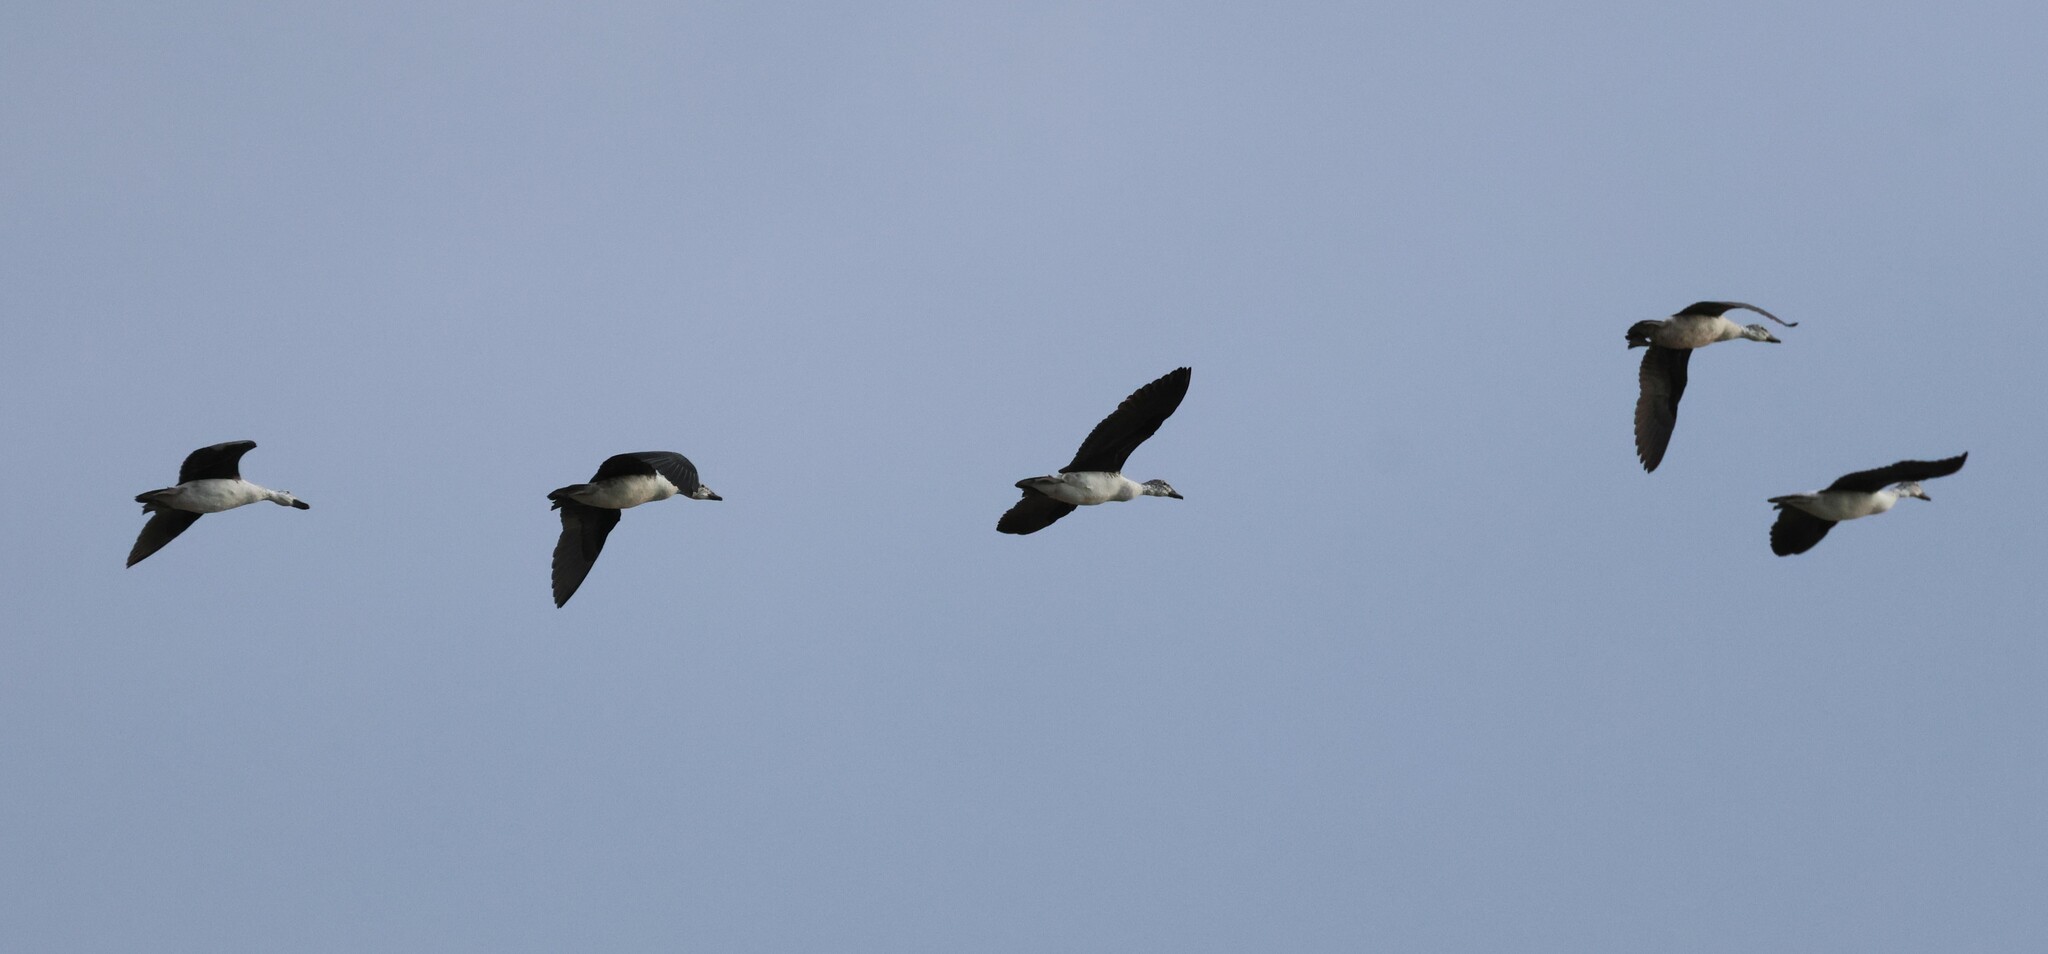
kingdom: Animalia
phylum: Chordata
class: Aves
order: Anseriformes
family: Anatidae
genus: Sarkidiornis
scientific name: Sarkidiornis melanotos
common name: Comb duck
